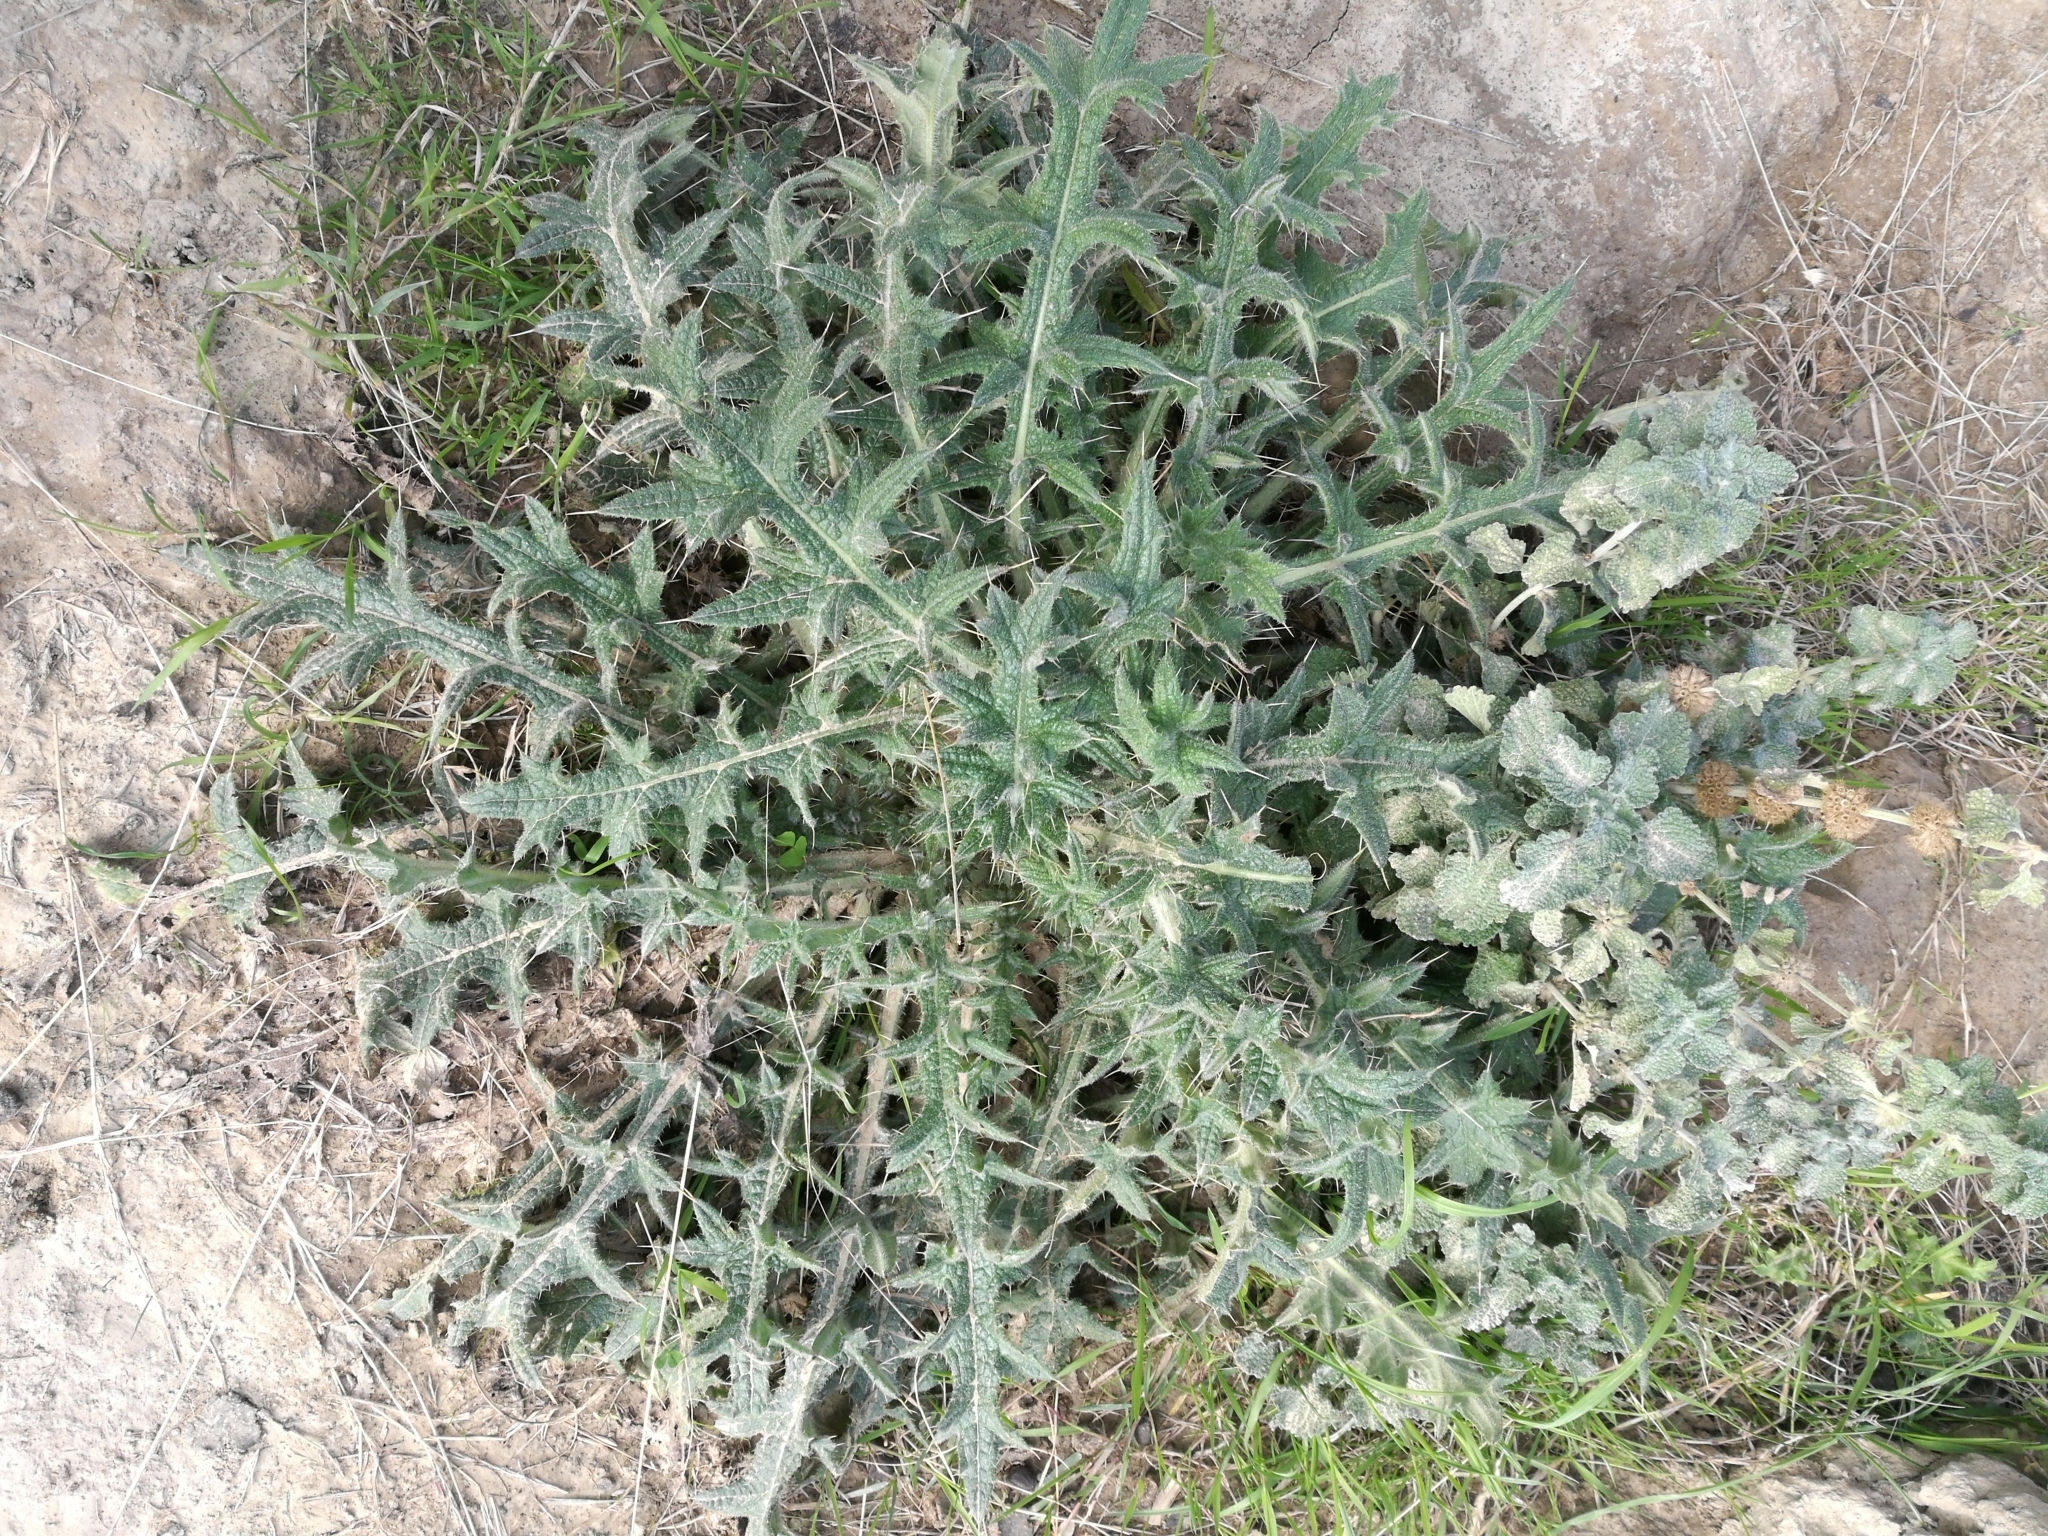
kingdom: Plantae
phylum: Tracheophyta
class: Magnoliopsida
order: Asterales
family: Asteraceae
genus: Cirsium
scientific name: Cirsium vulgare
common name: Bull thistle
